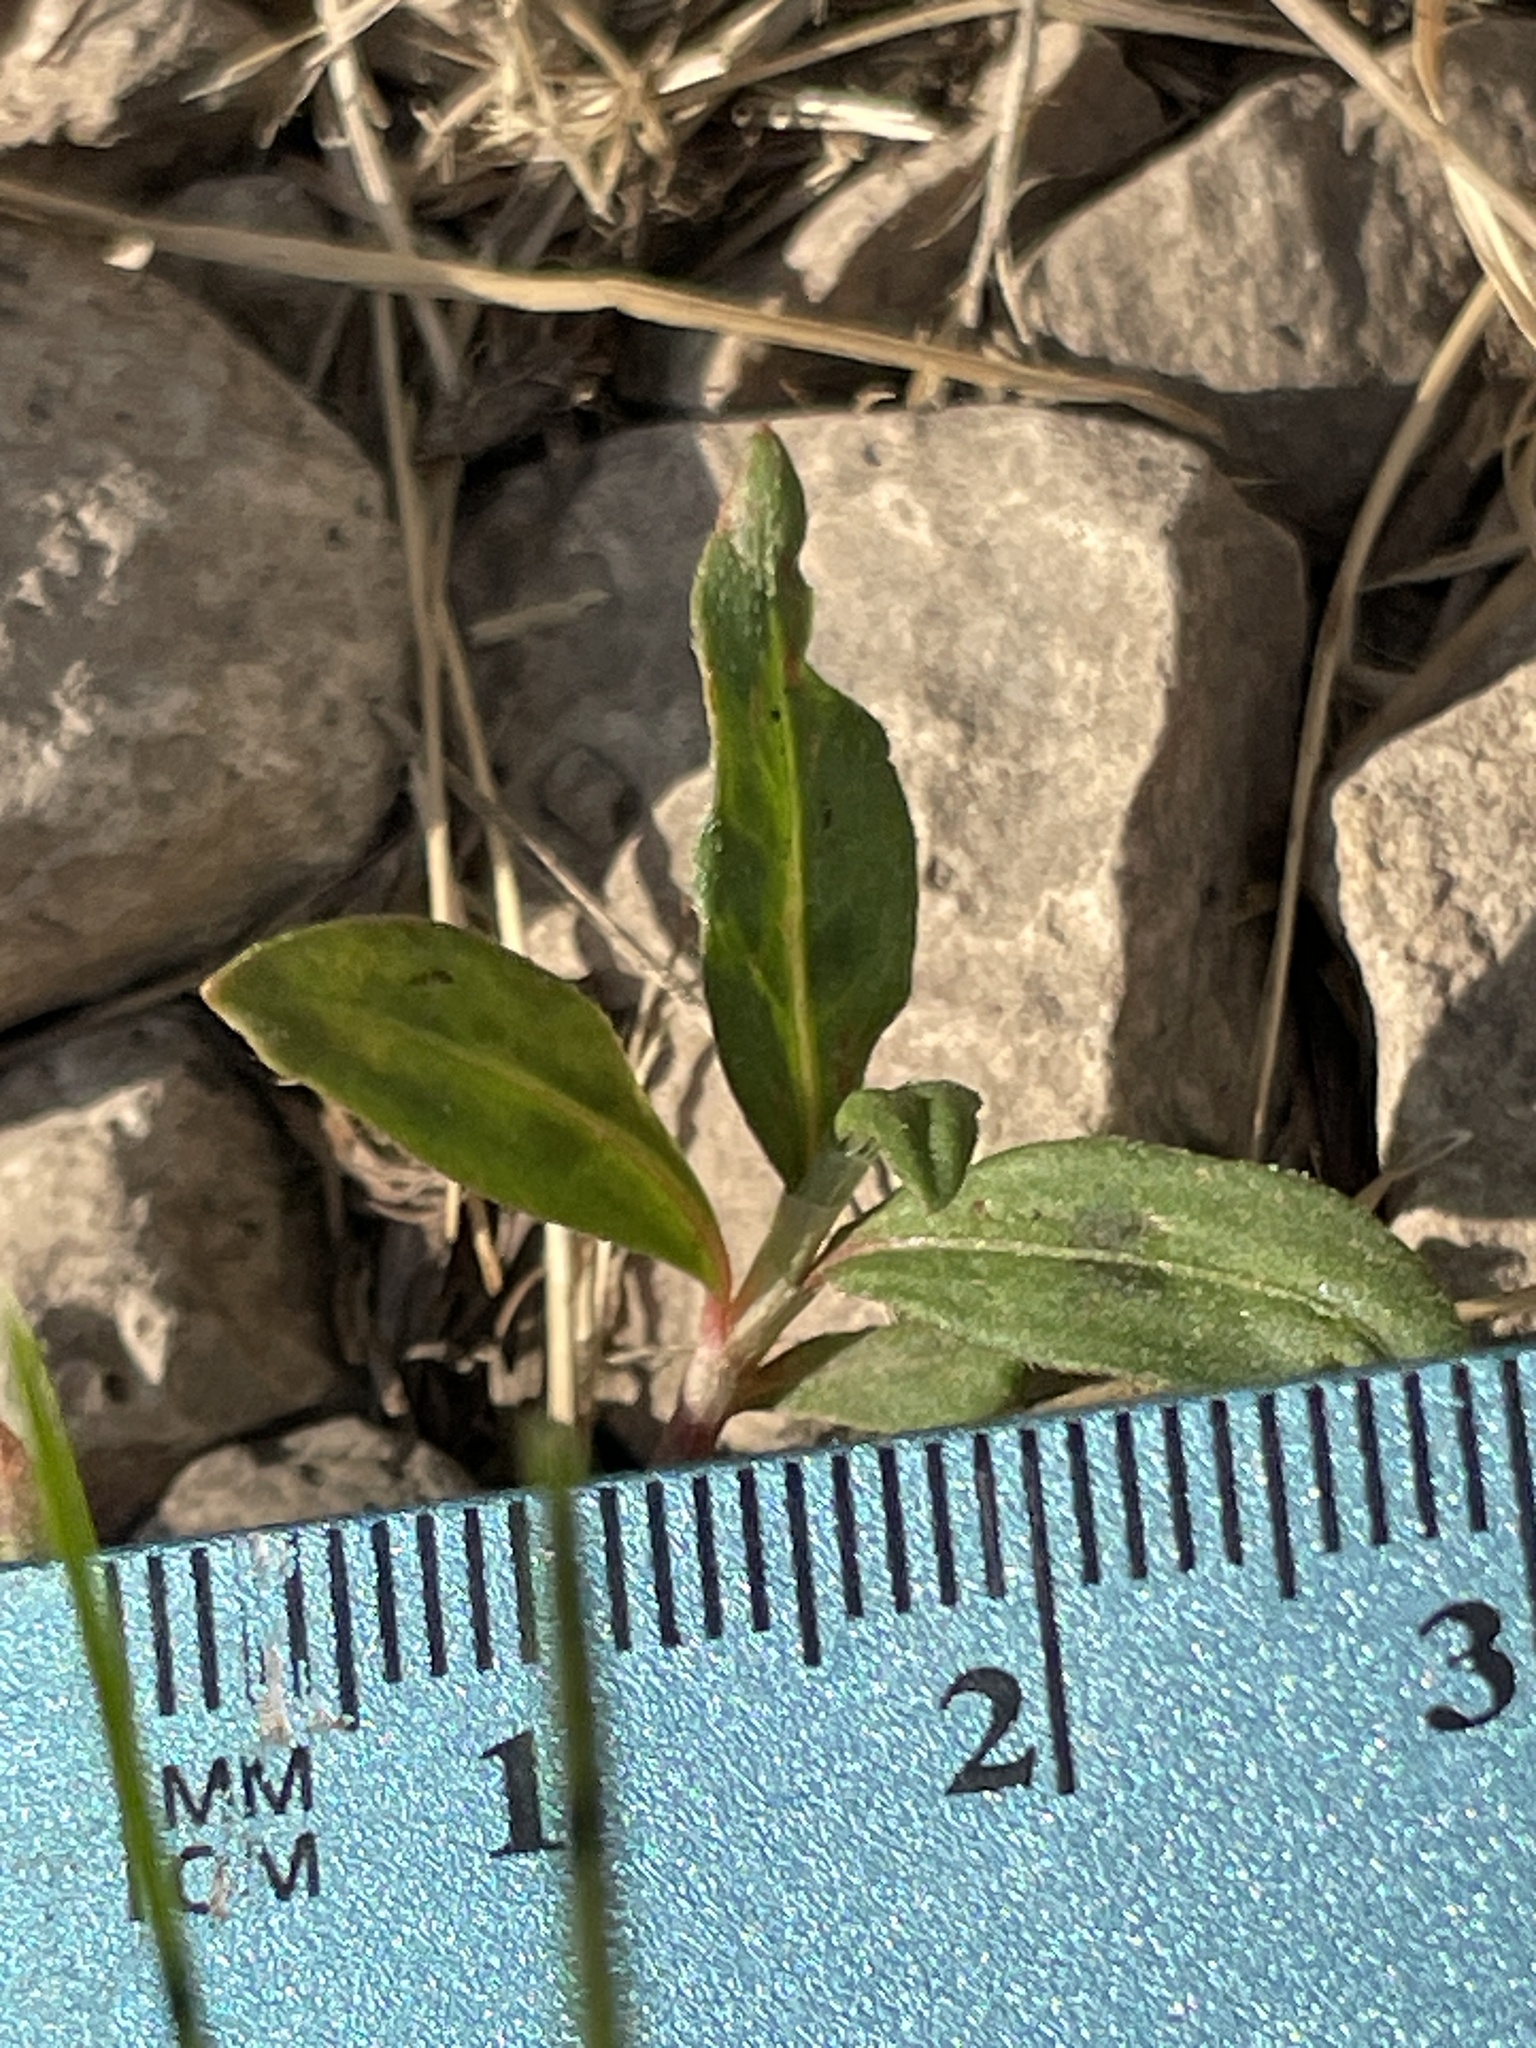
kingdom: Plantae
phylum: Tracheophyta
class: Magnoliopsida
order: Caryophyllales
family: Polygonaceae
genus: Persicaria
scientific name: Persicaria longiseta
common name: Bristly lady's-thumb
